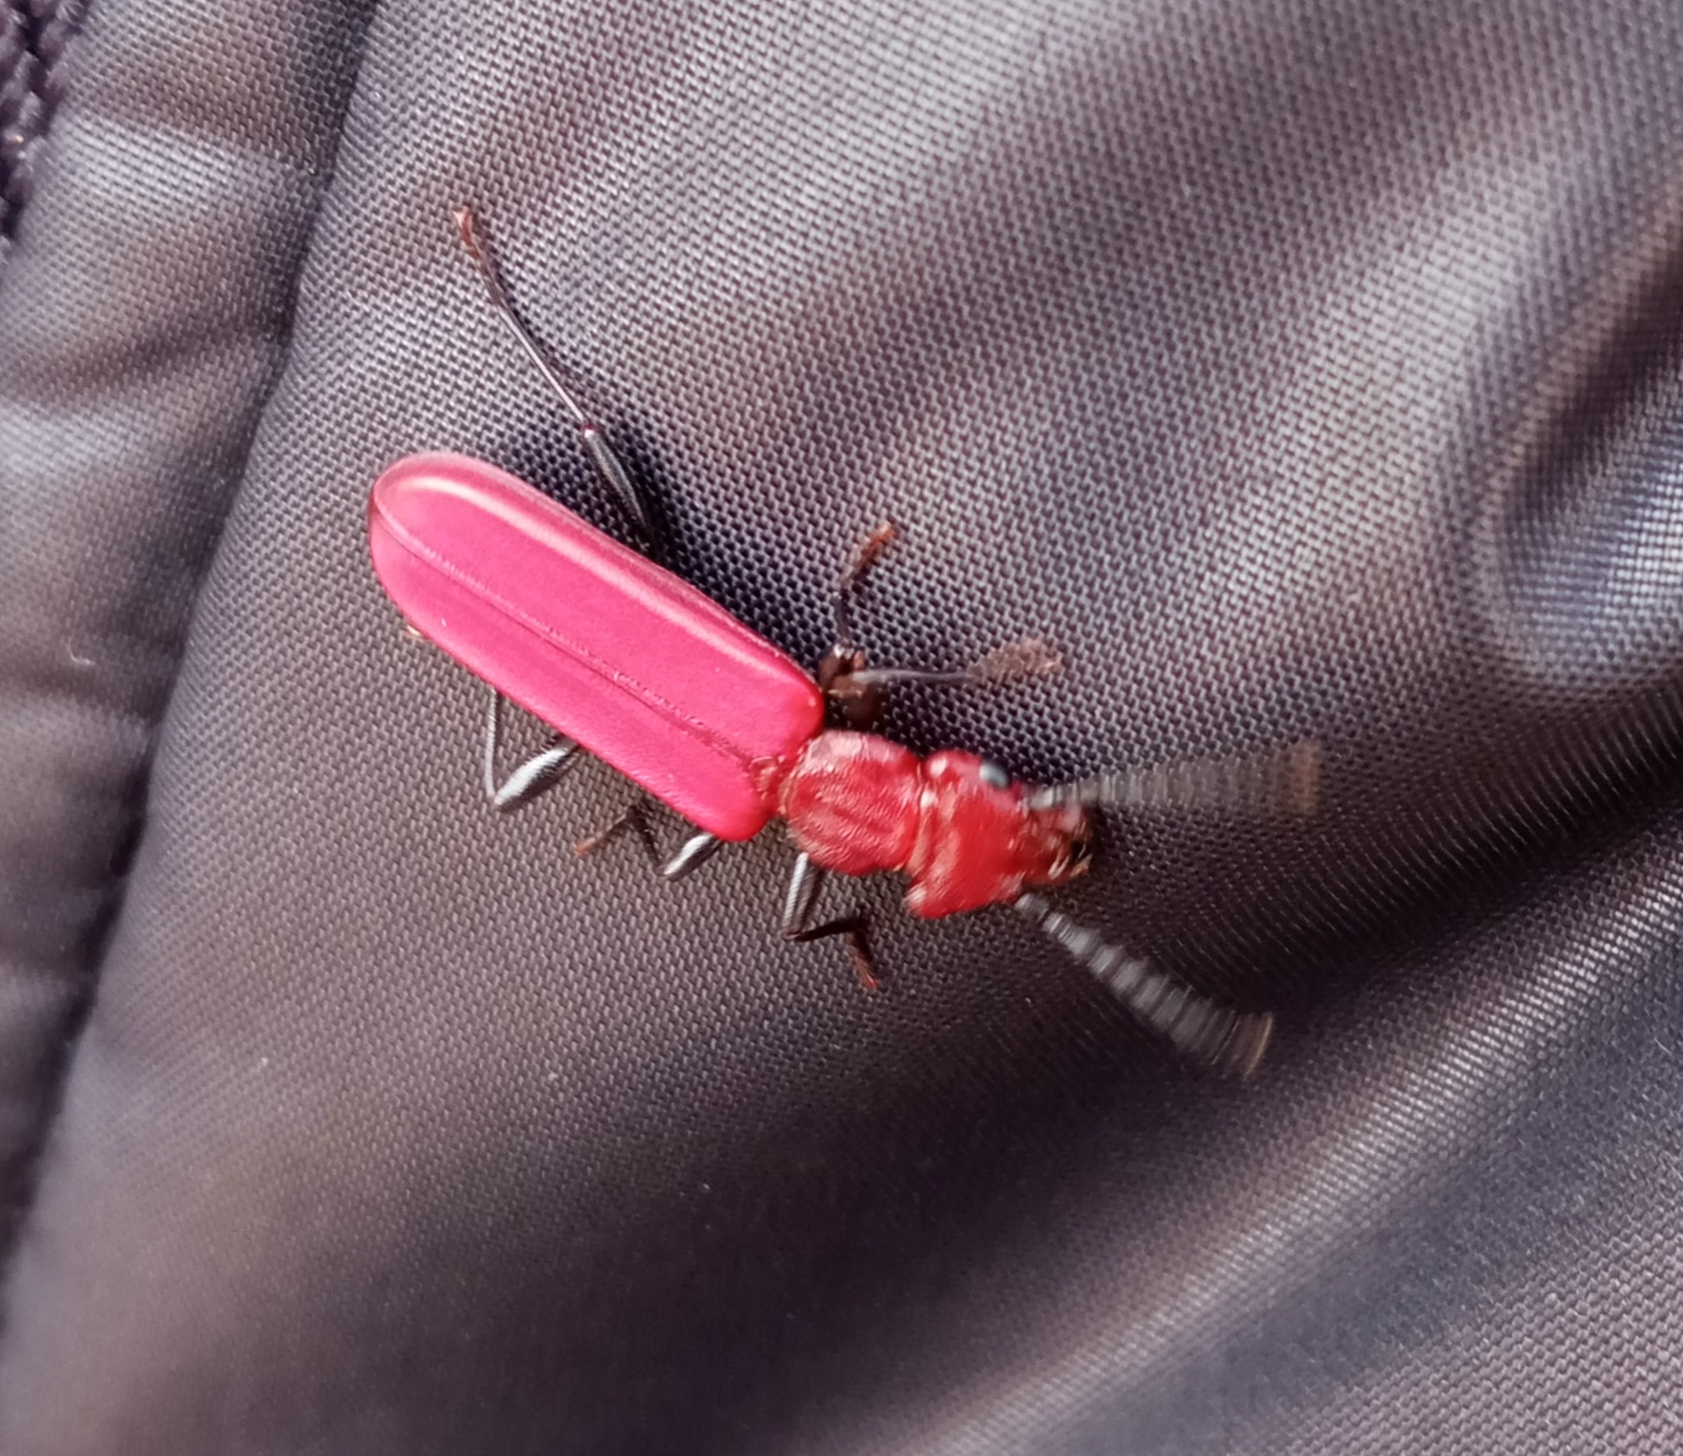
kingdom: Animalia
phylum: Arthropoda
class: Insecta
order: Coleoptera
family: Cucujidae
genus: Cucujus
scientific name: Cucujus haematodes
